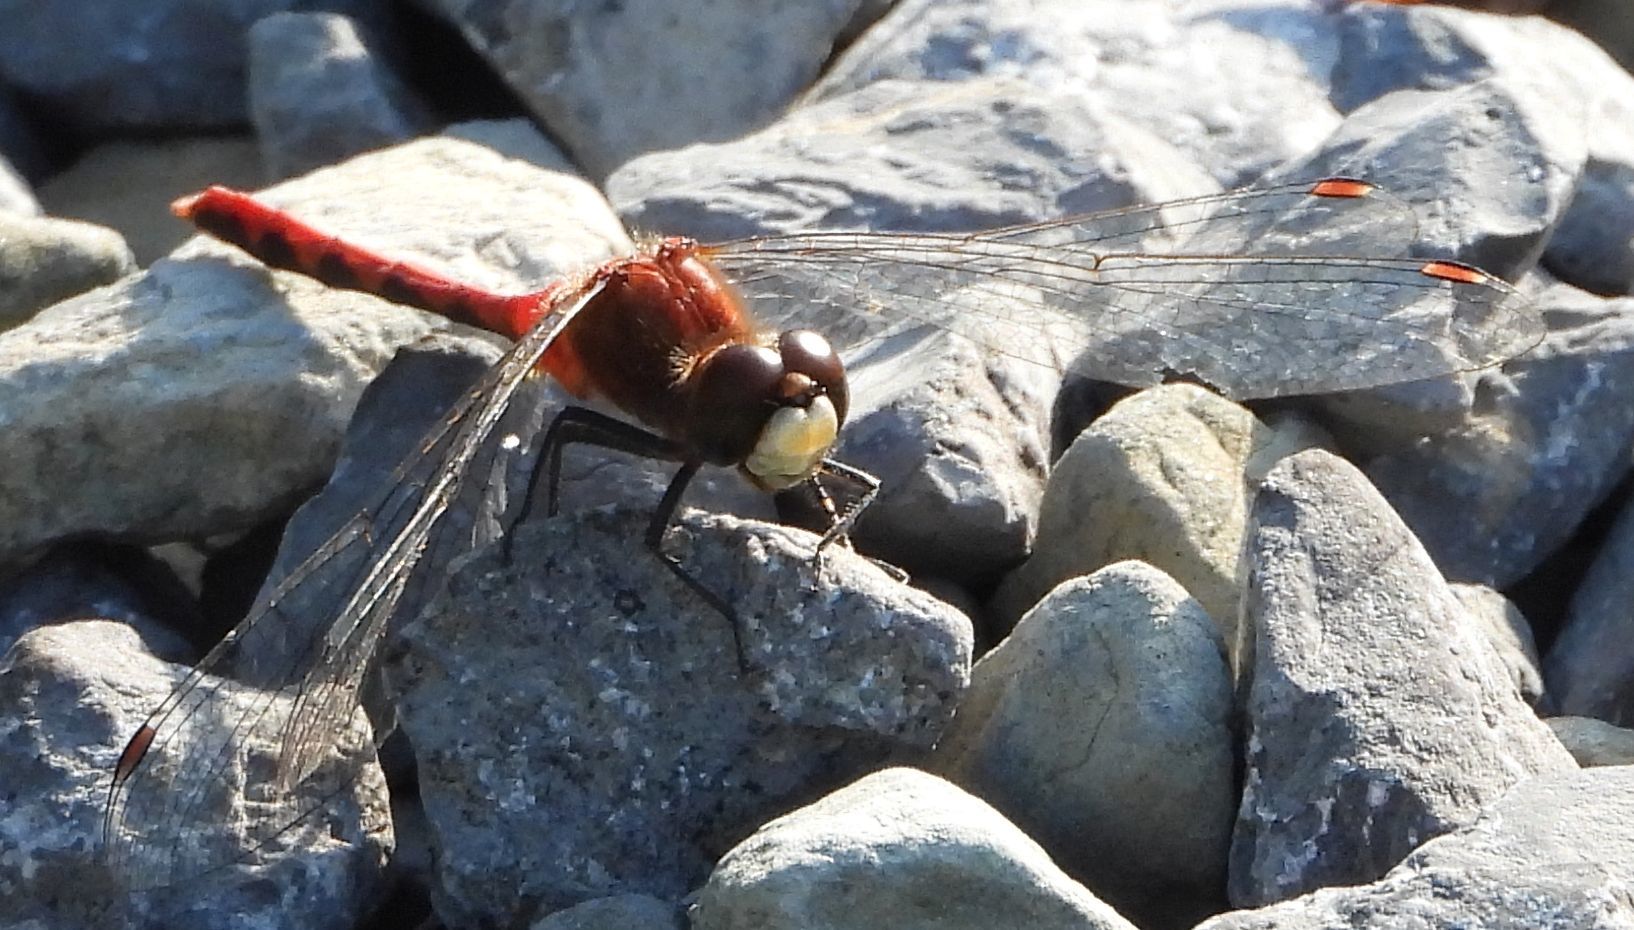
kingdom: Animalia
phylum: Arthropoda
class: Insecta
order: Odonata
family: Libellulidae
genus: Sympetrum
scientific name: Sympetrum obtrusum
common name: White-faced meadowhawk
